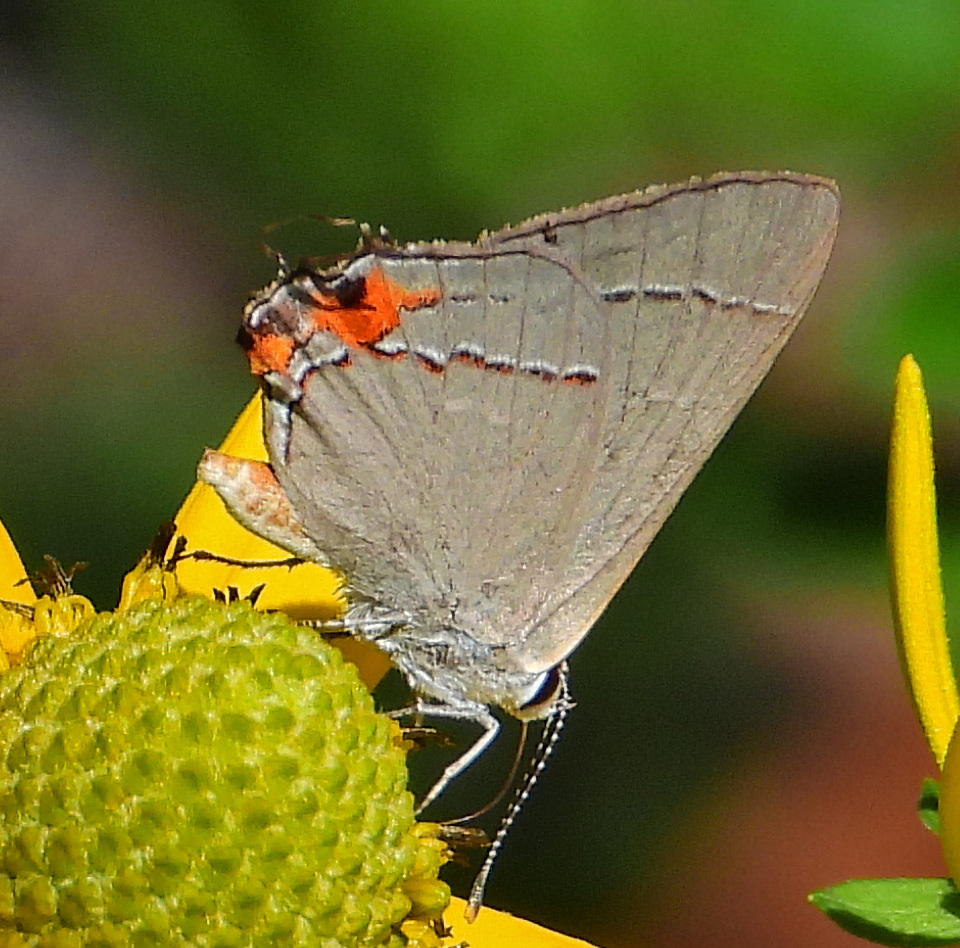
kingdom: Animalia
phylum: Arthropoda
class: Insecta
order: Lepidoptera
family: Lycaenidae
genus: Strymon
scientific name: Strymon melinus
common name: Gray hairstreak
